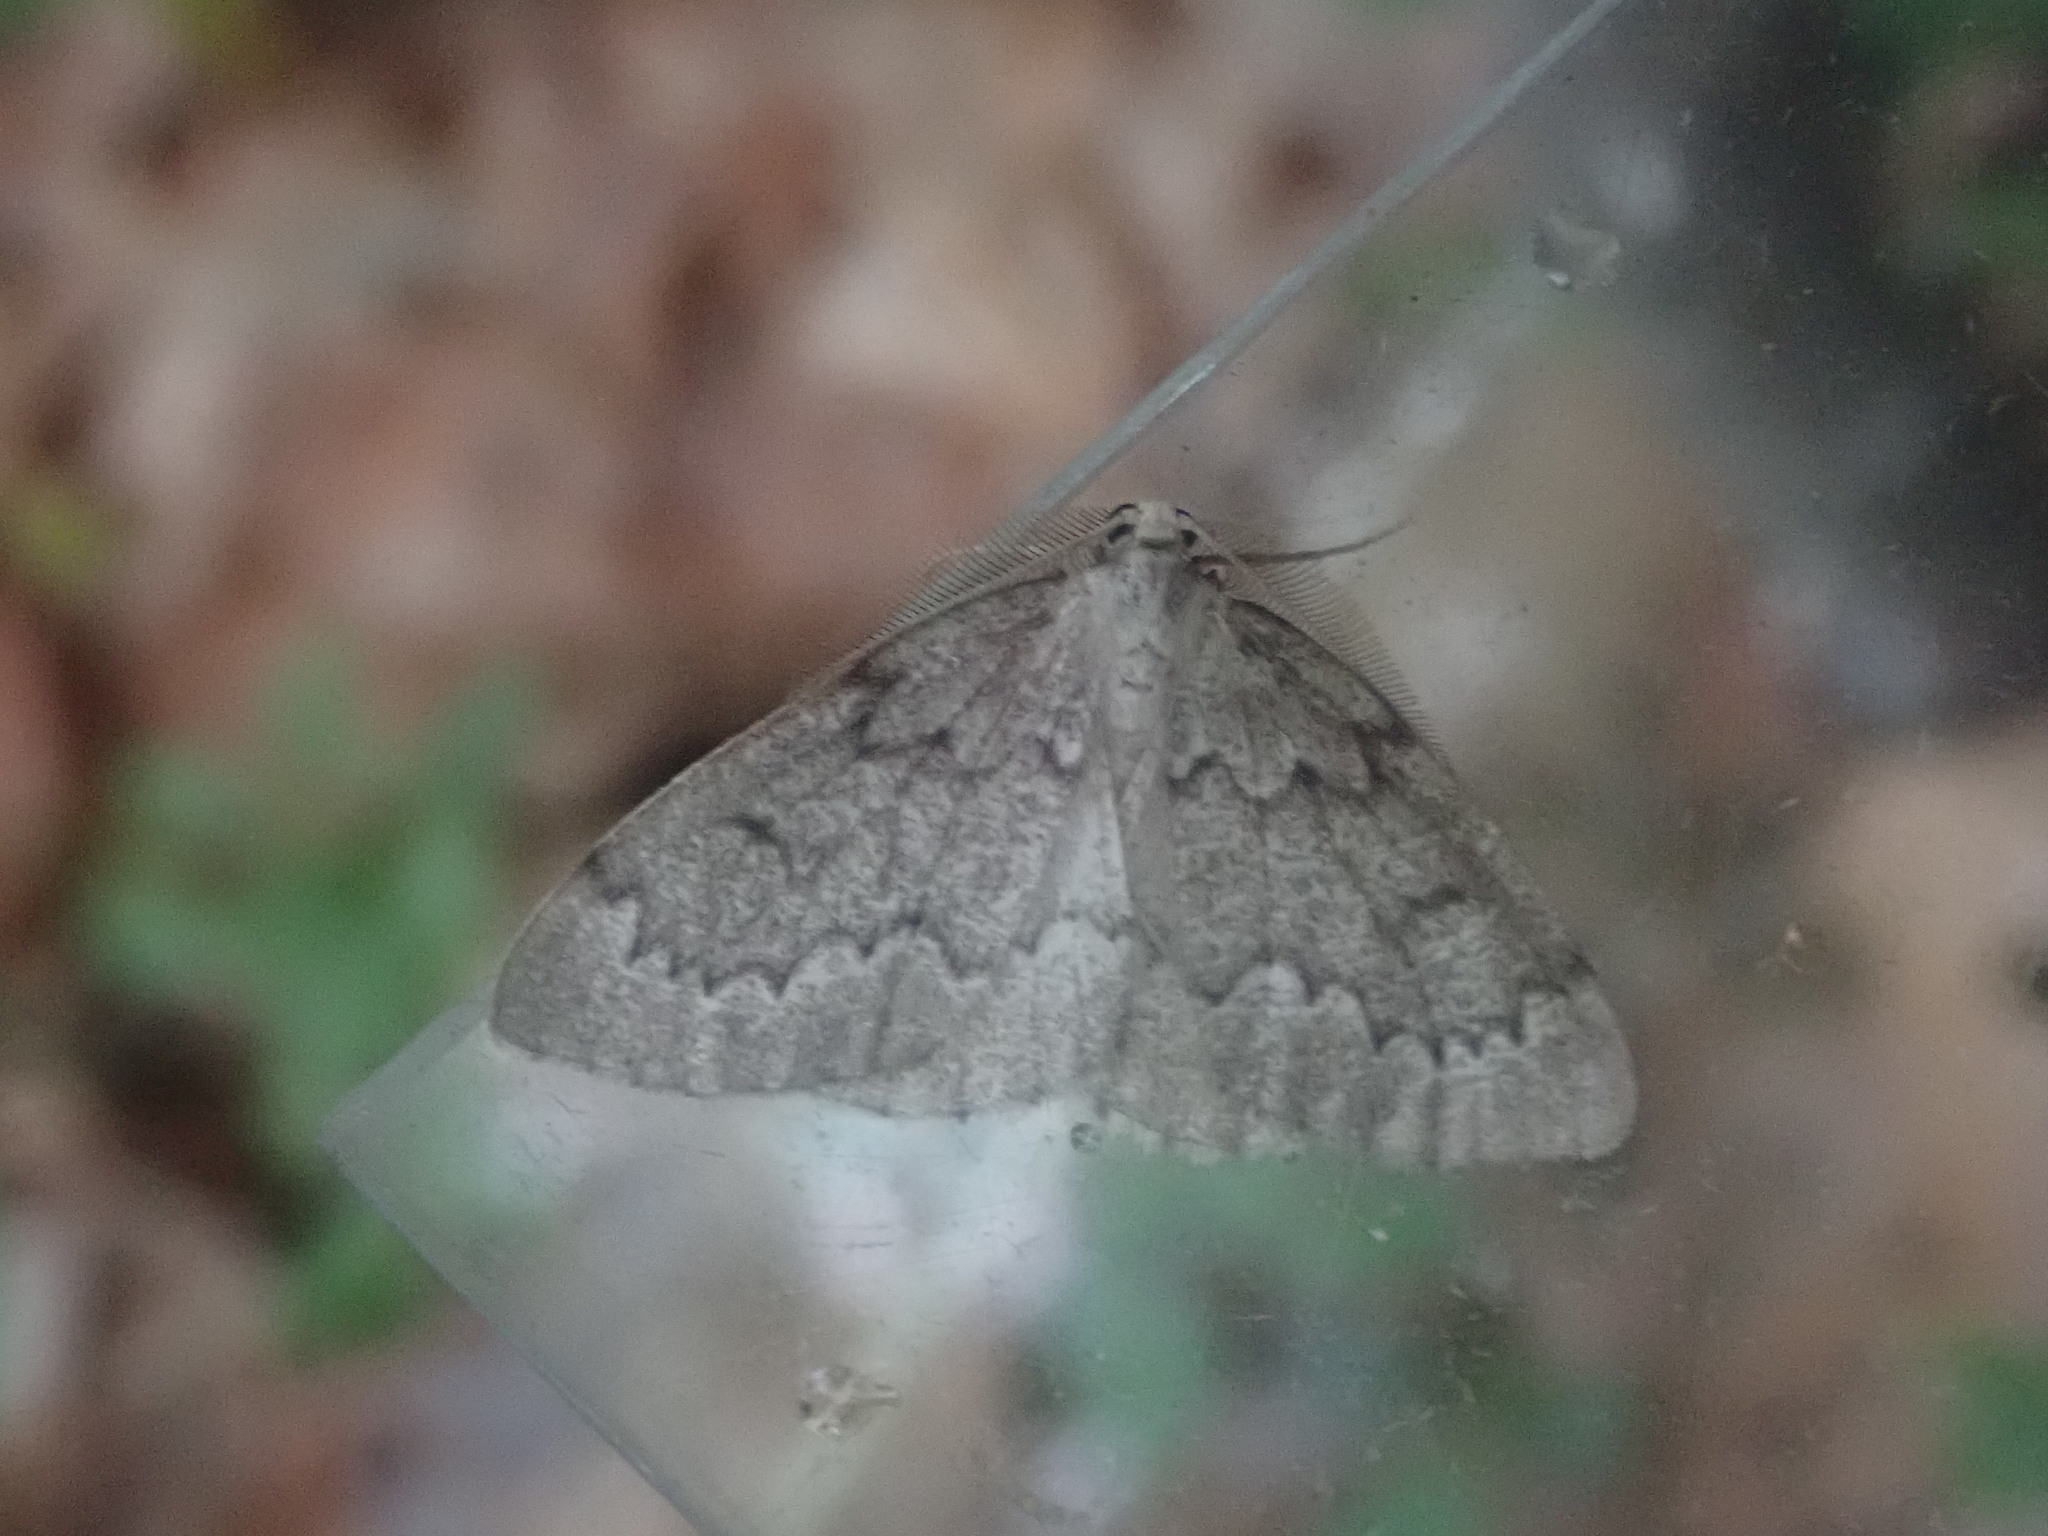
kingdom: Animalia
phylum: Arthropoda
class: Insecta
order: Lepidoptera
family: Geometridae
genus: Nepytia
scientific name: Nepytia canosaria
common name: False hemlock looper
